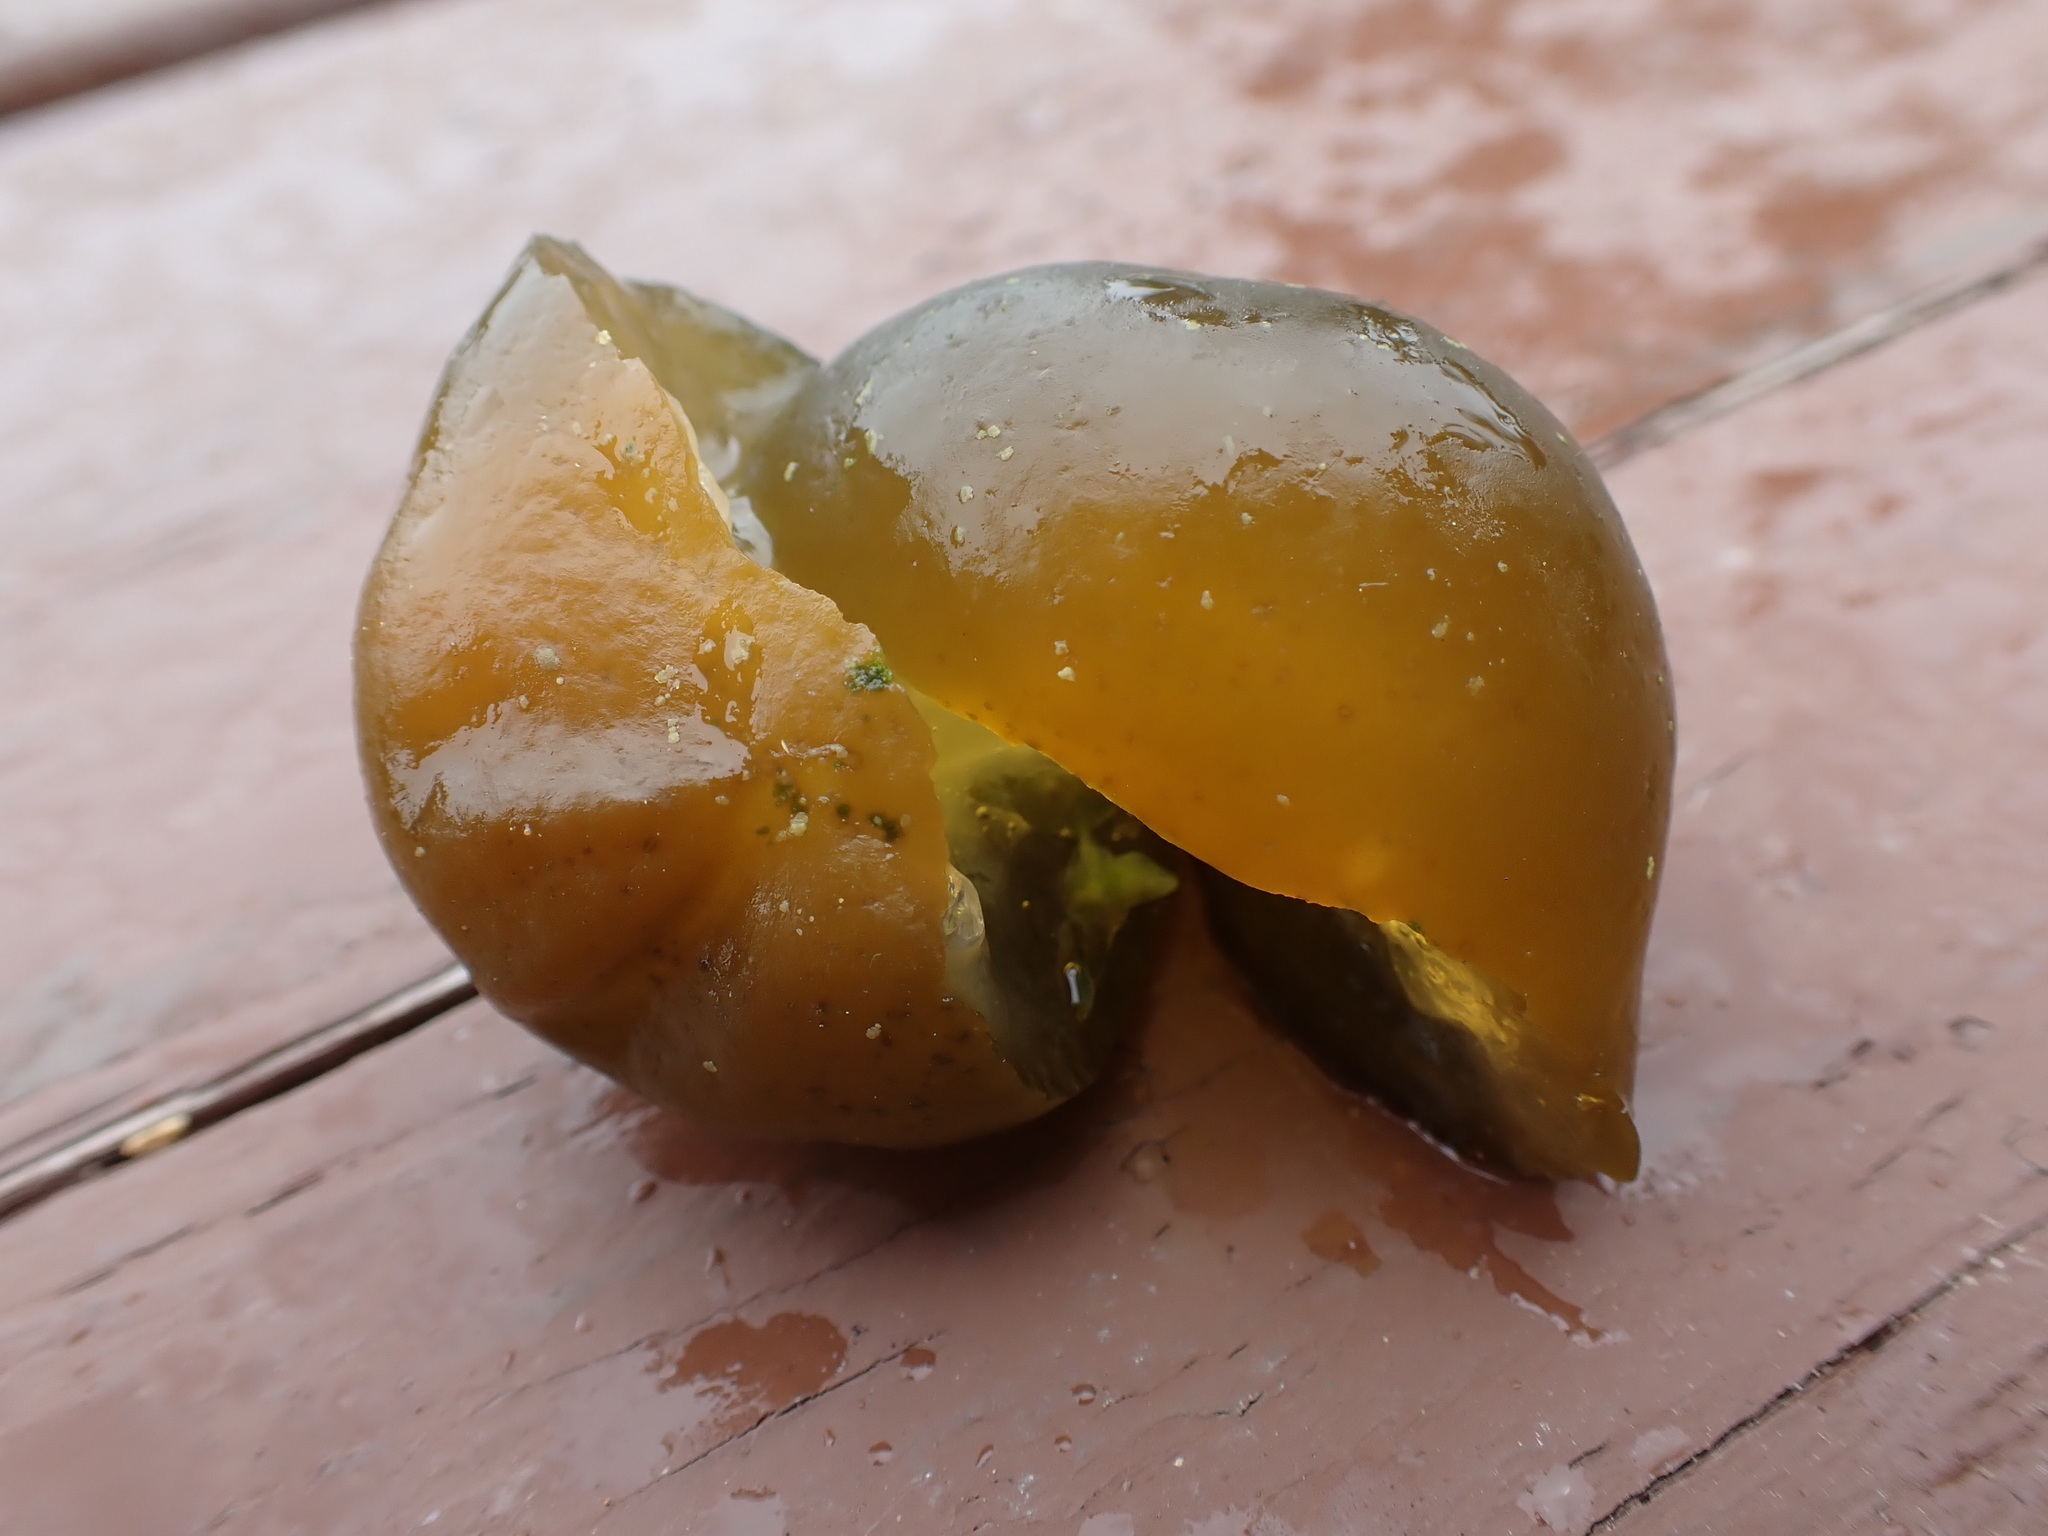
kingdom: Bacteria
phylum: Cyanobacteria
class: Cyanobacteriia
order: Cyanobacteriales
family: Nostocaceae
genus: Nostoc
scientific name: Nostoc pruniforme
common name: Mare's eggs
